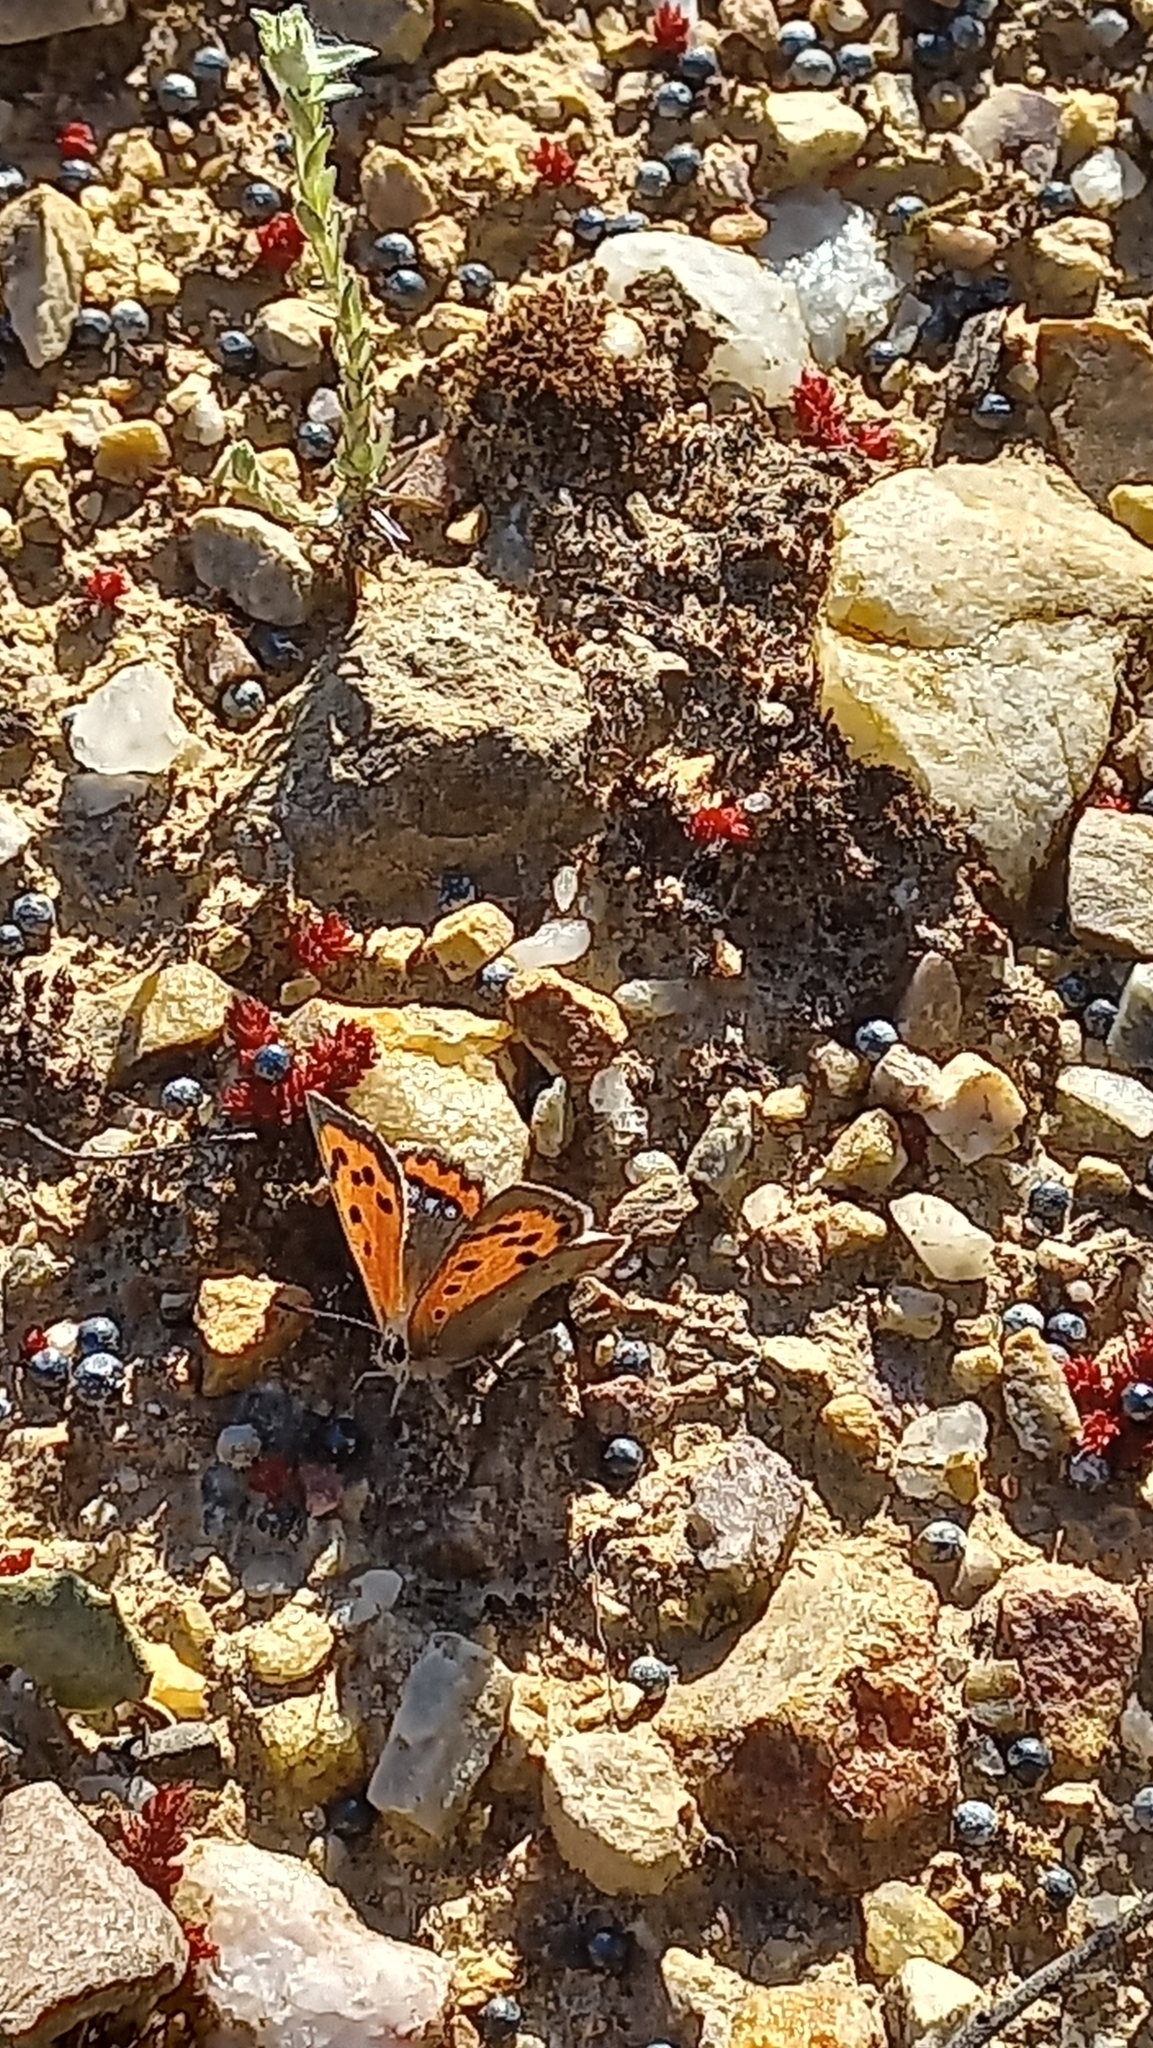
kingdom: Animalia
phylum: Arthropoda
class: Insecta
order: Lepidoptera
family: Lycaenidae
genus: Lycaena
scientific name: Lycaena phlaeas
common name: Small copper
